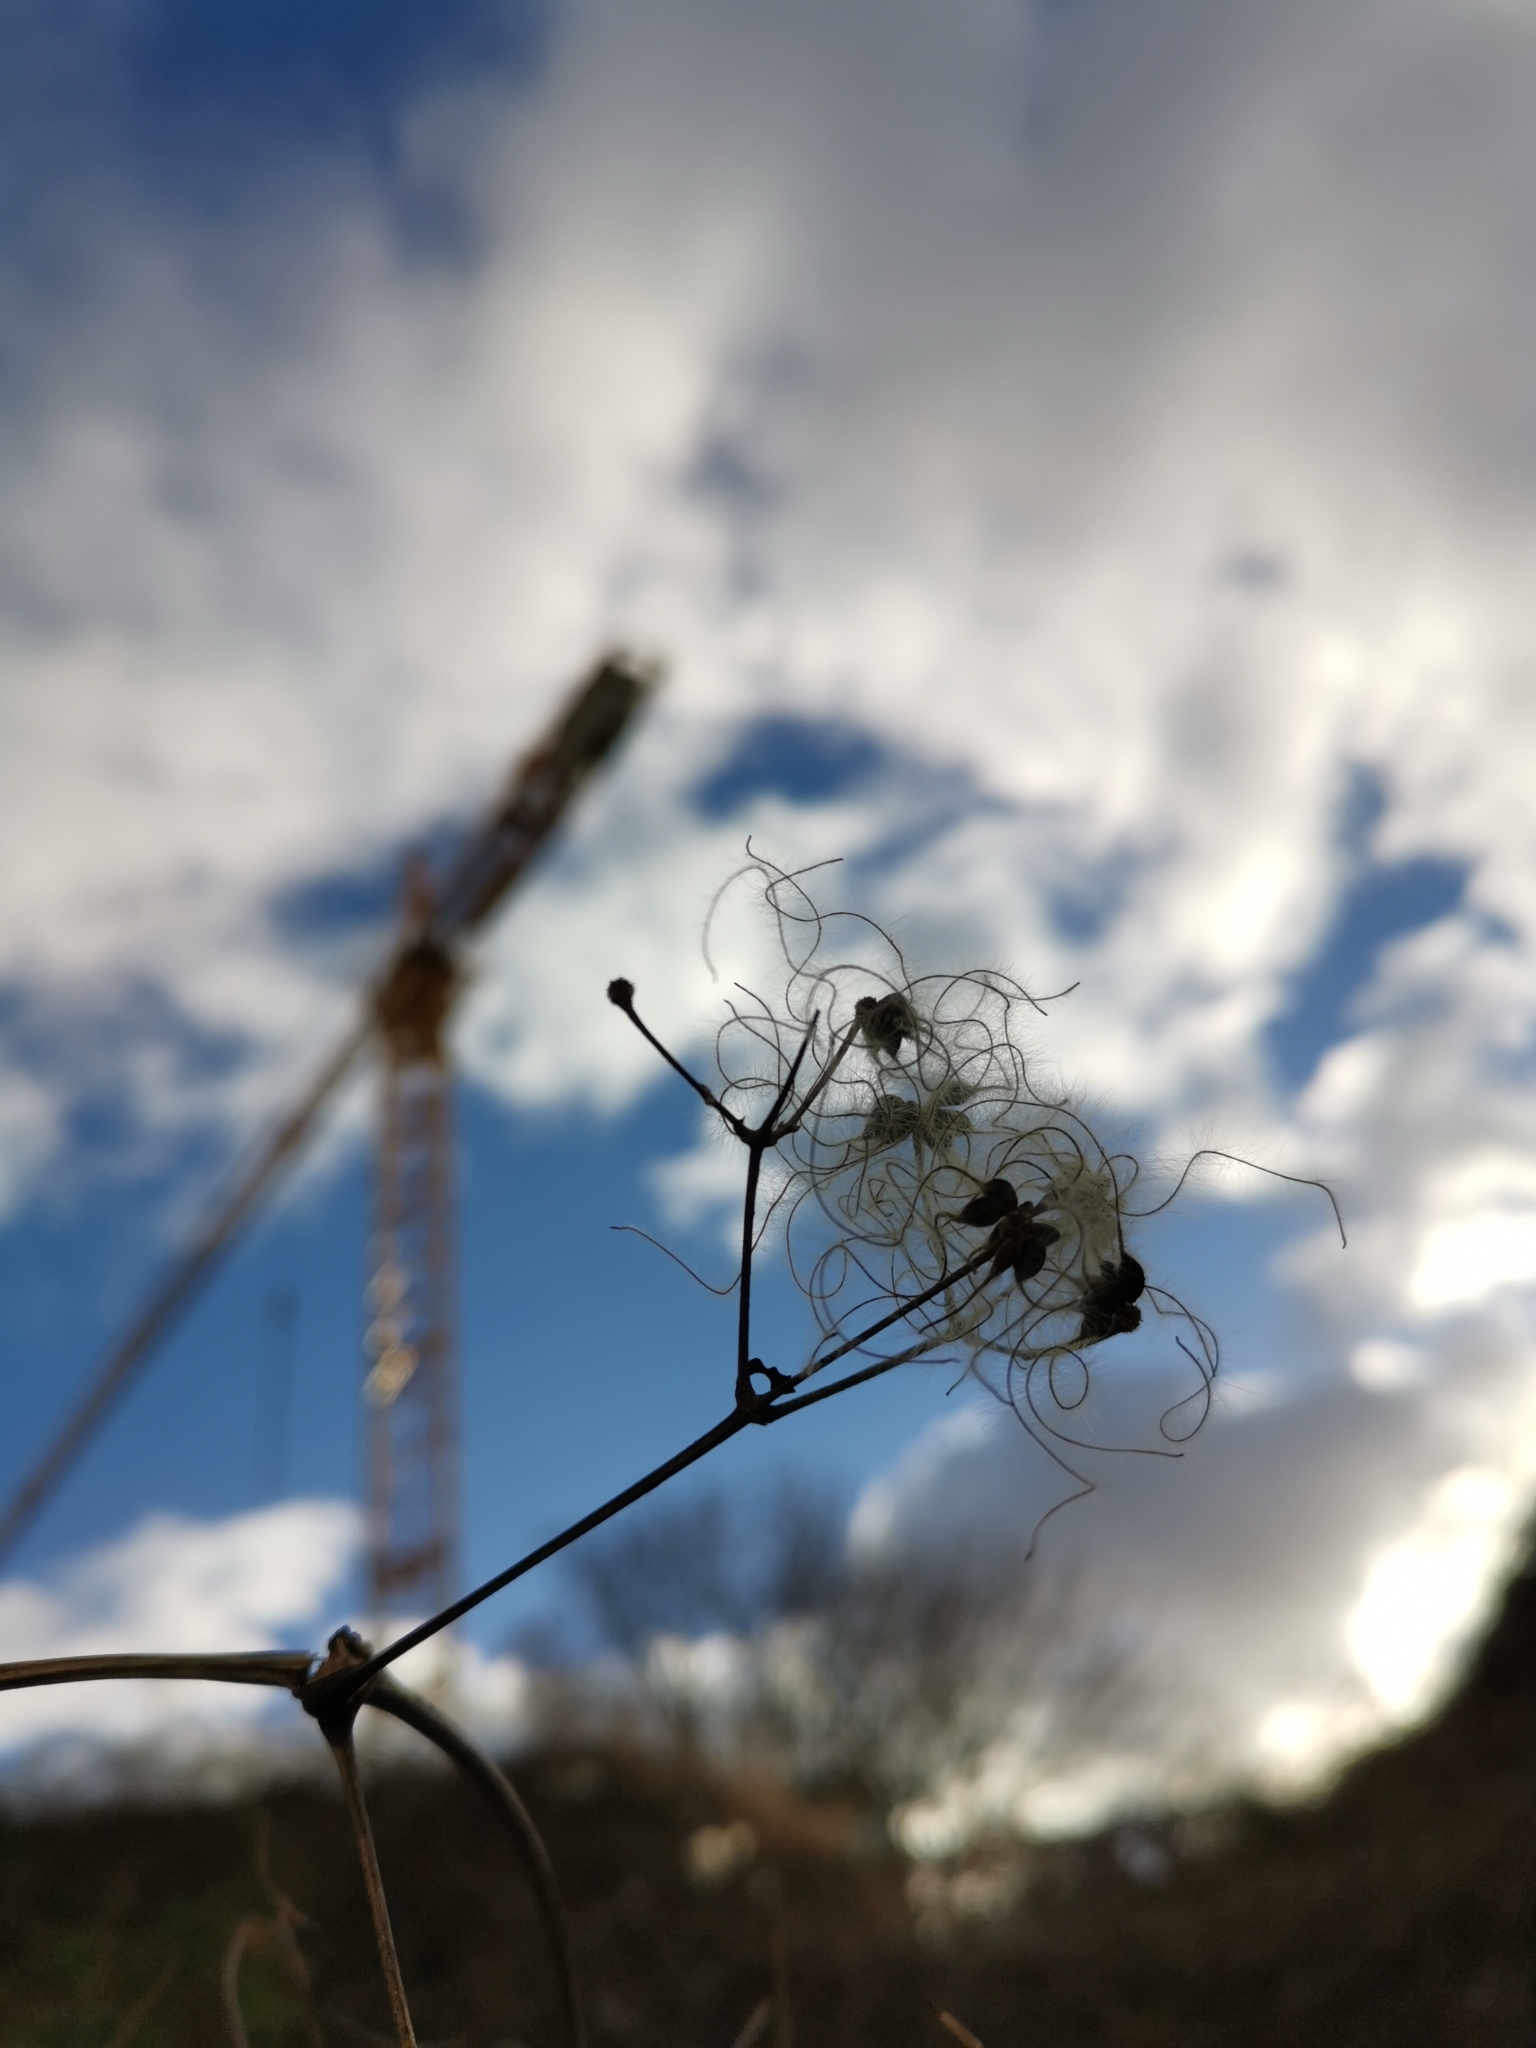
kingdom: Plantae
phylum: Tracheophyta
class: Magnoliopsida
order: Ranunculales
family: Ranunculaceae
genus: Clematis
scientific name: Clematis vitalba
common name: Evergreen clematis
